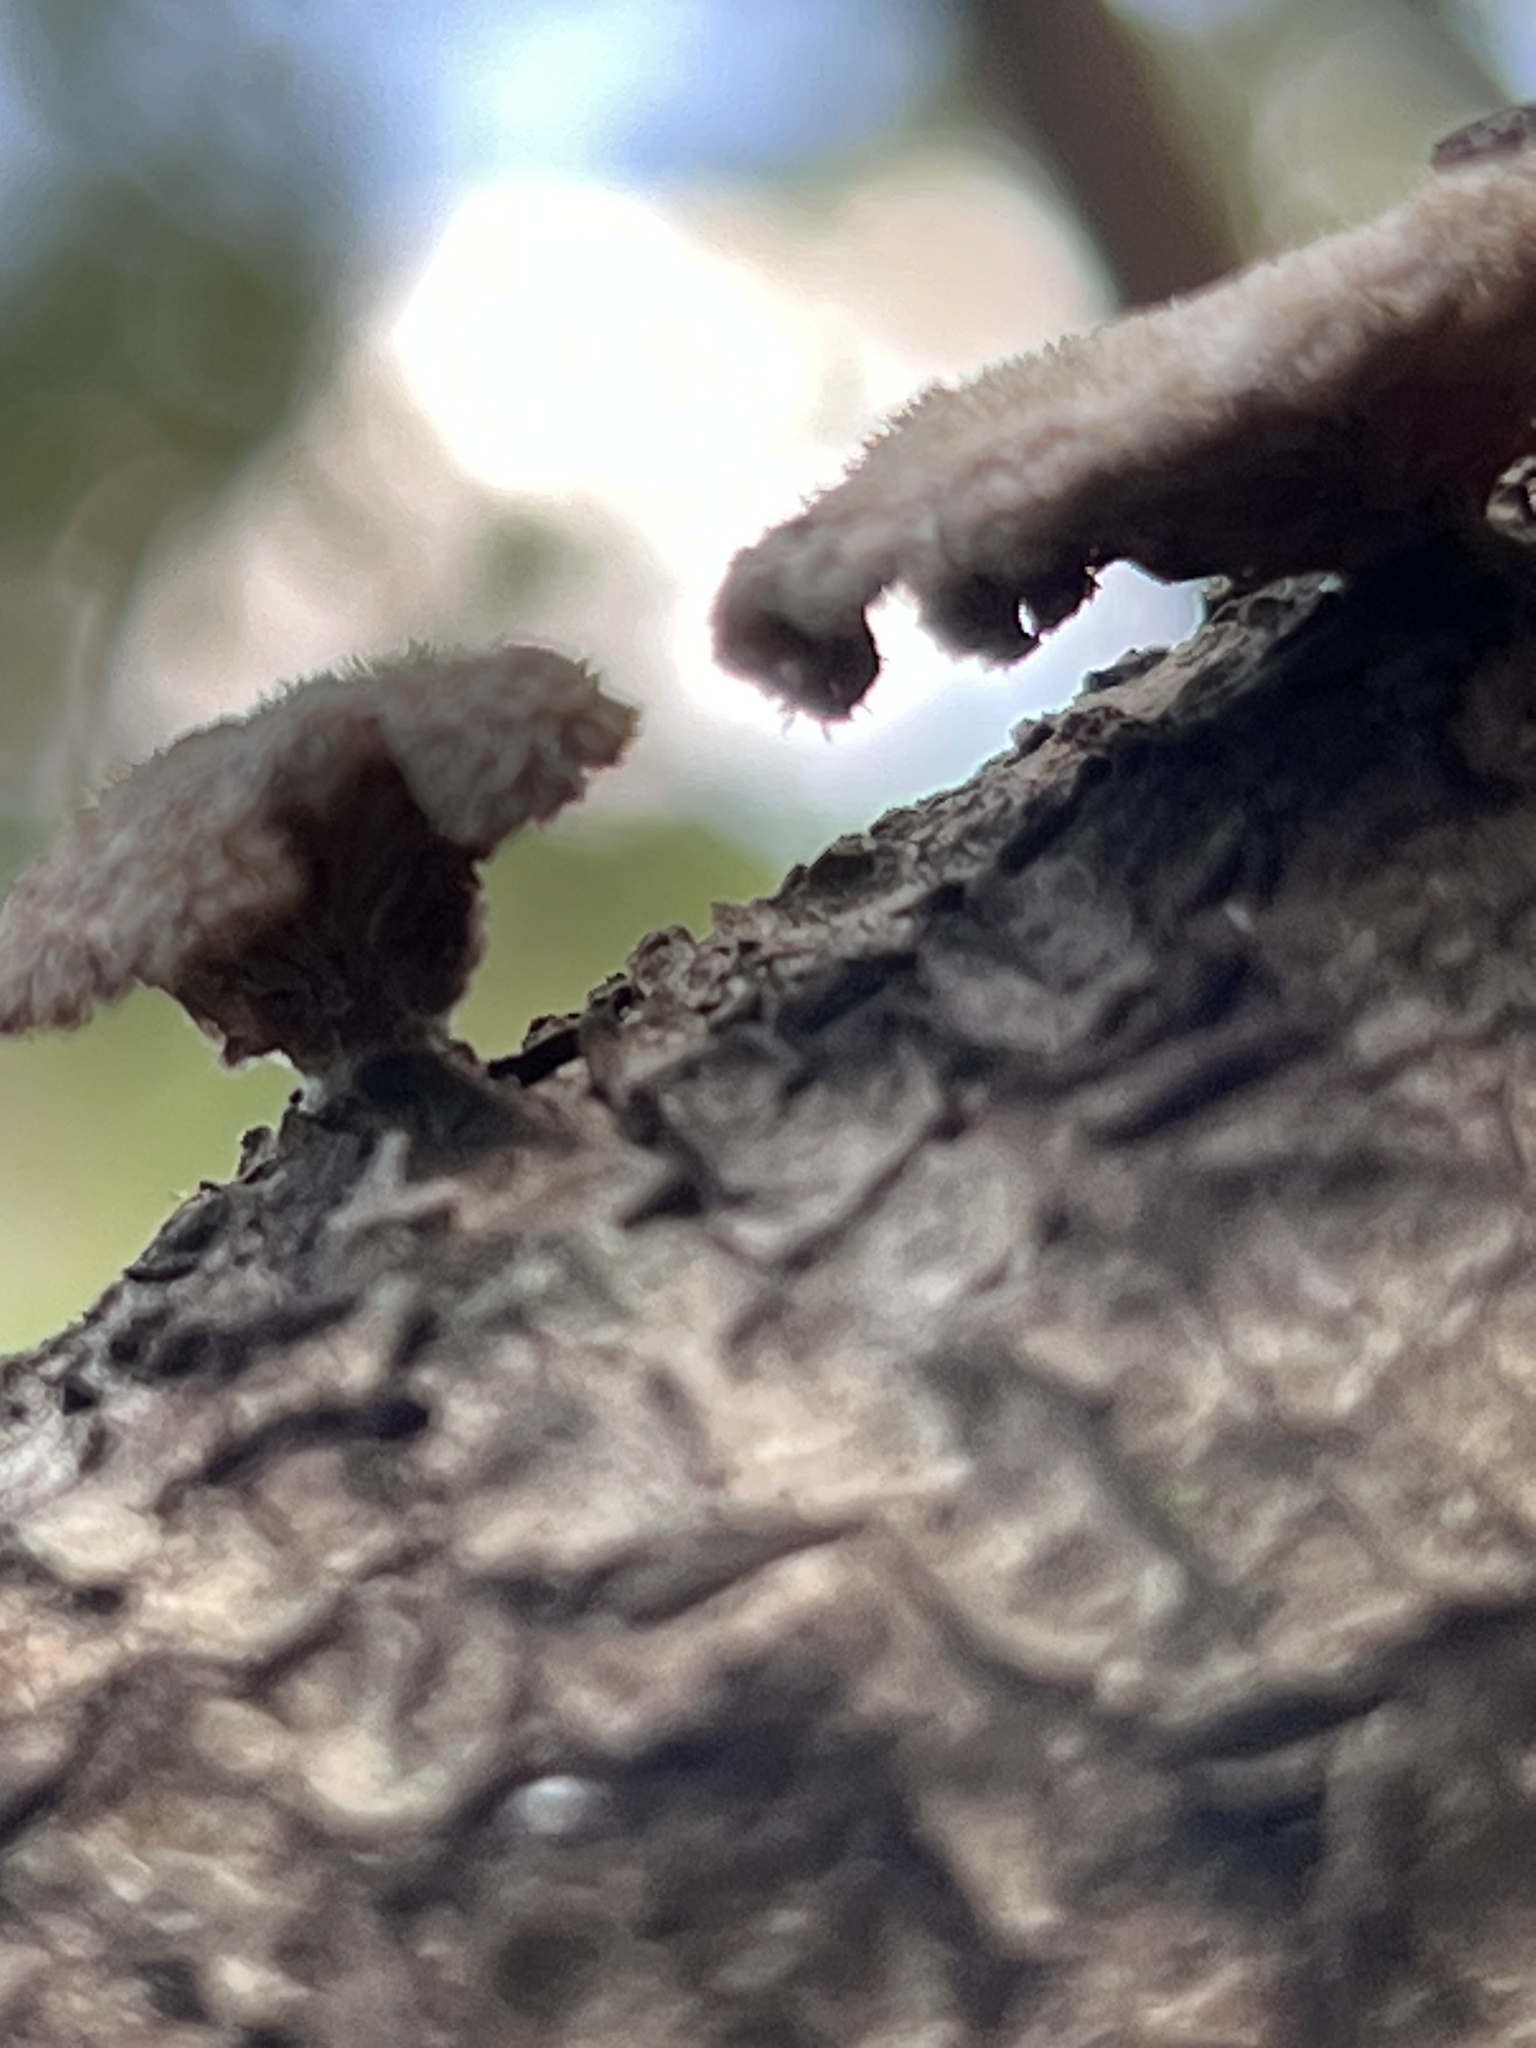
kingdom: Fungi
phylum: Basidiomycota
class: Agaricomycetes
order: Agaricales
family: Schizophyllaceae
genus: Schizophyllum
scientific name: Schizophyllum commune
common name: Common porecrust
